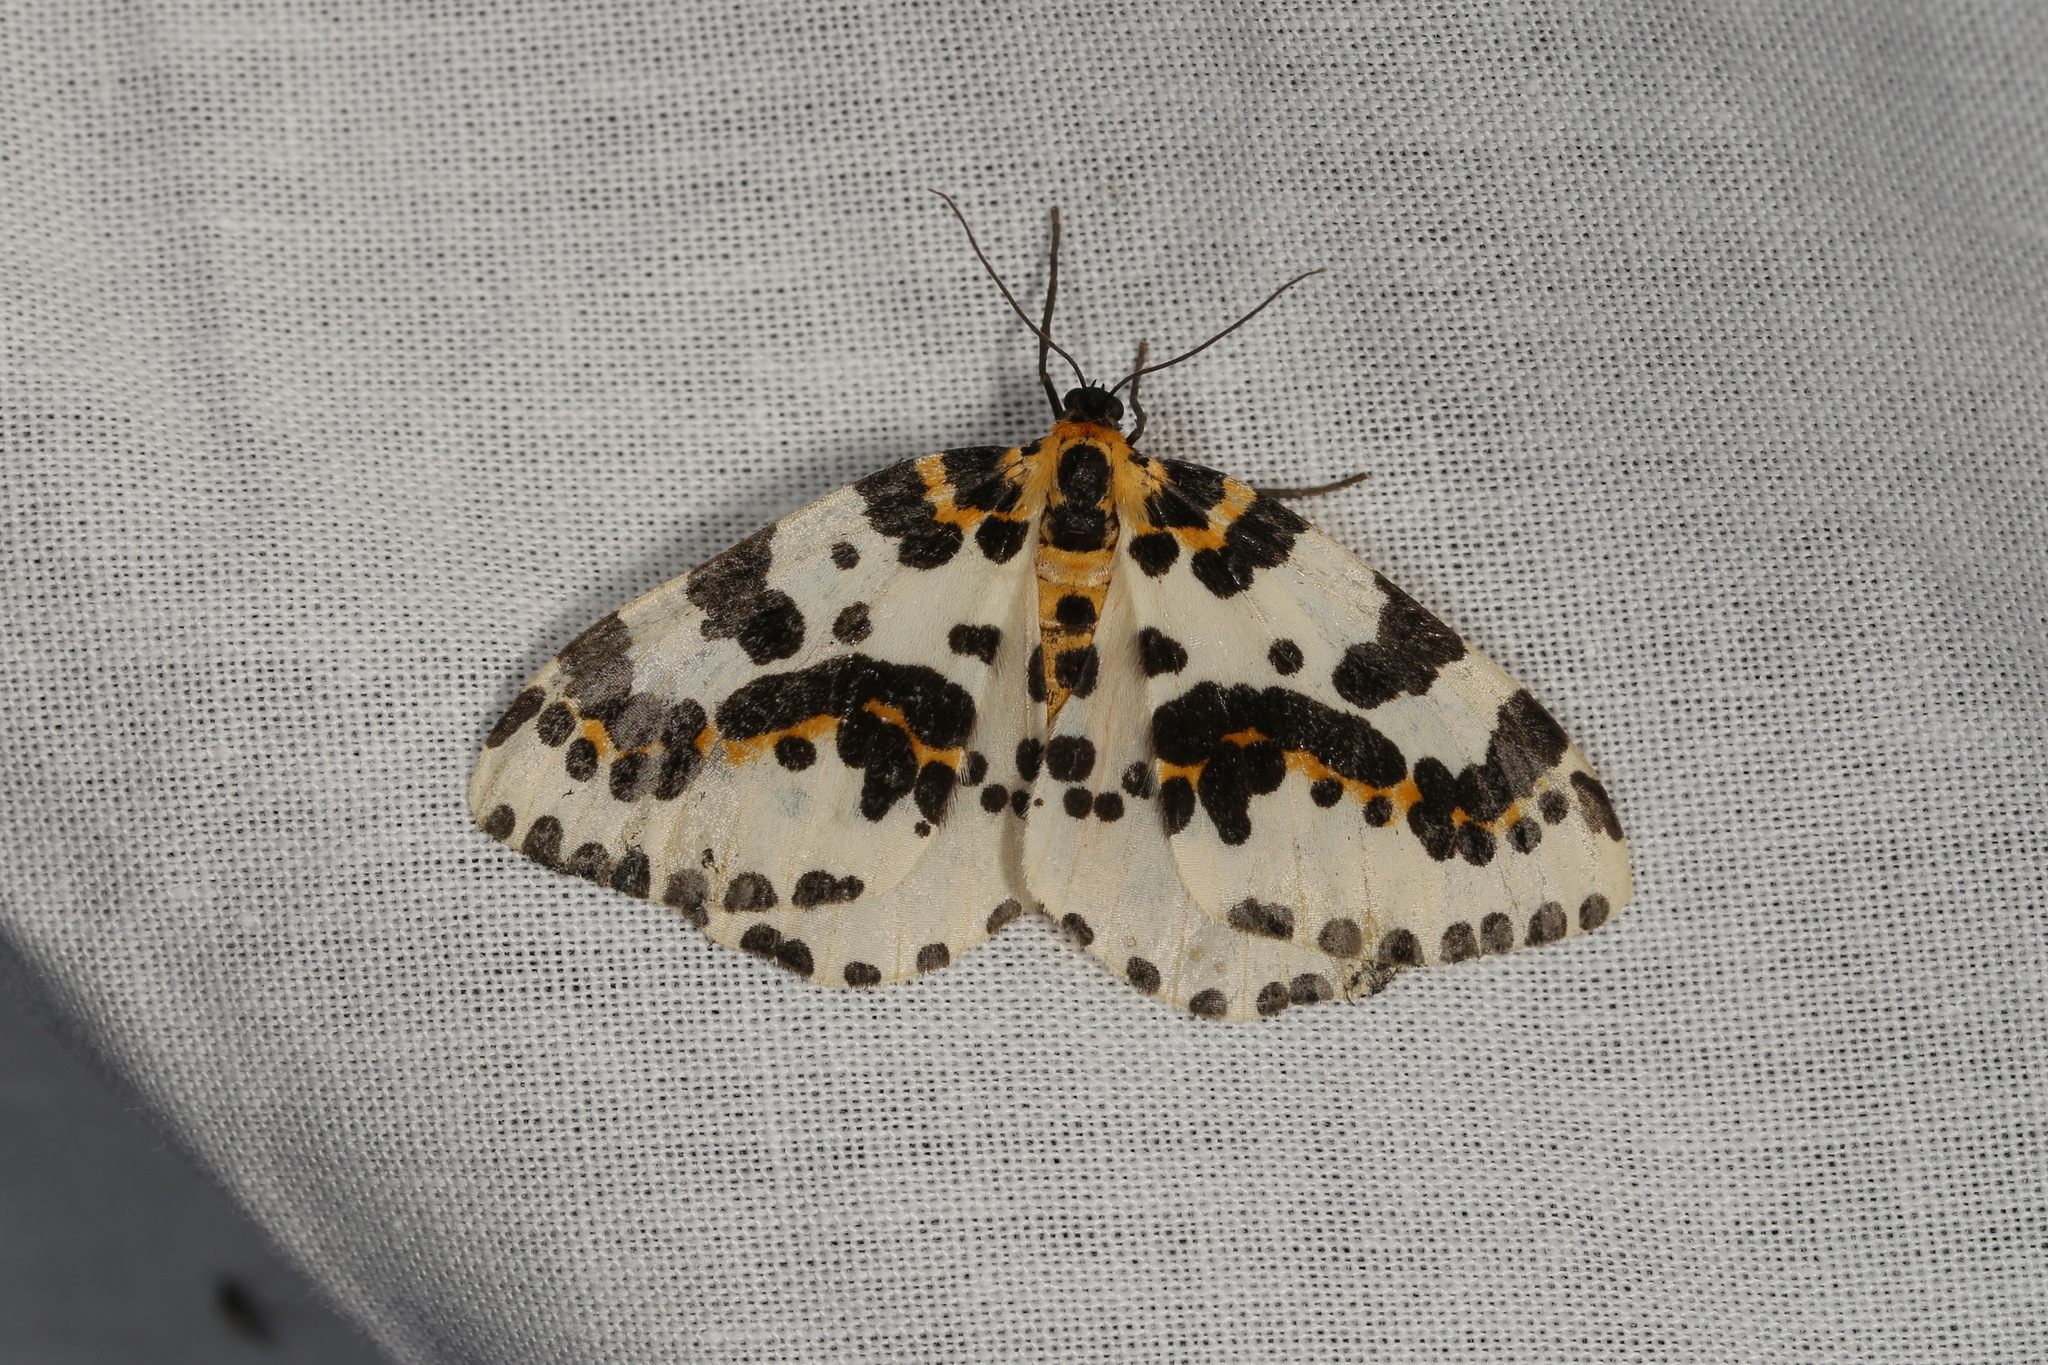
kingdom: Animalia
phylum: Arthropoda
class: Insecta
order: Lepidoptera
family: Geometridae
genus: Abraxas
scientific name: Abraxas grossulariata
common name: Magpie
